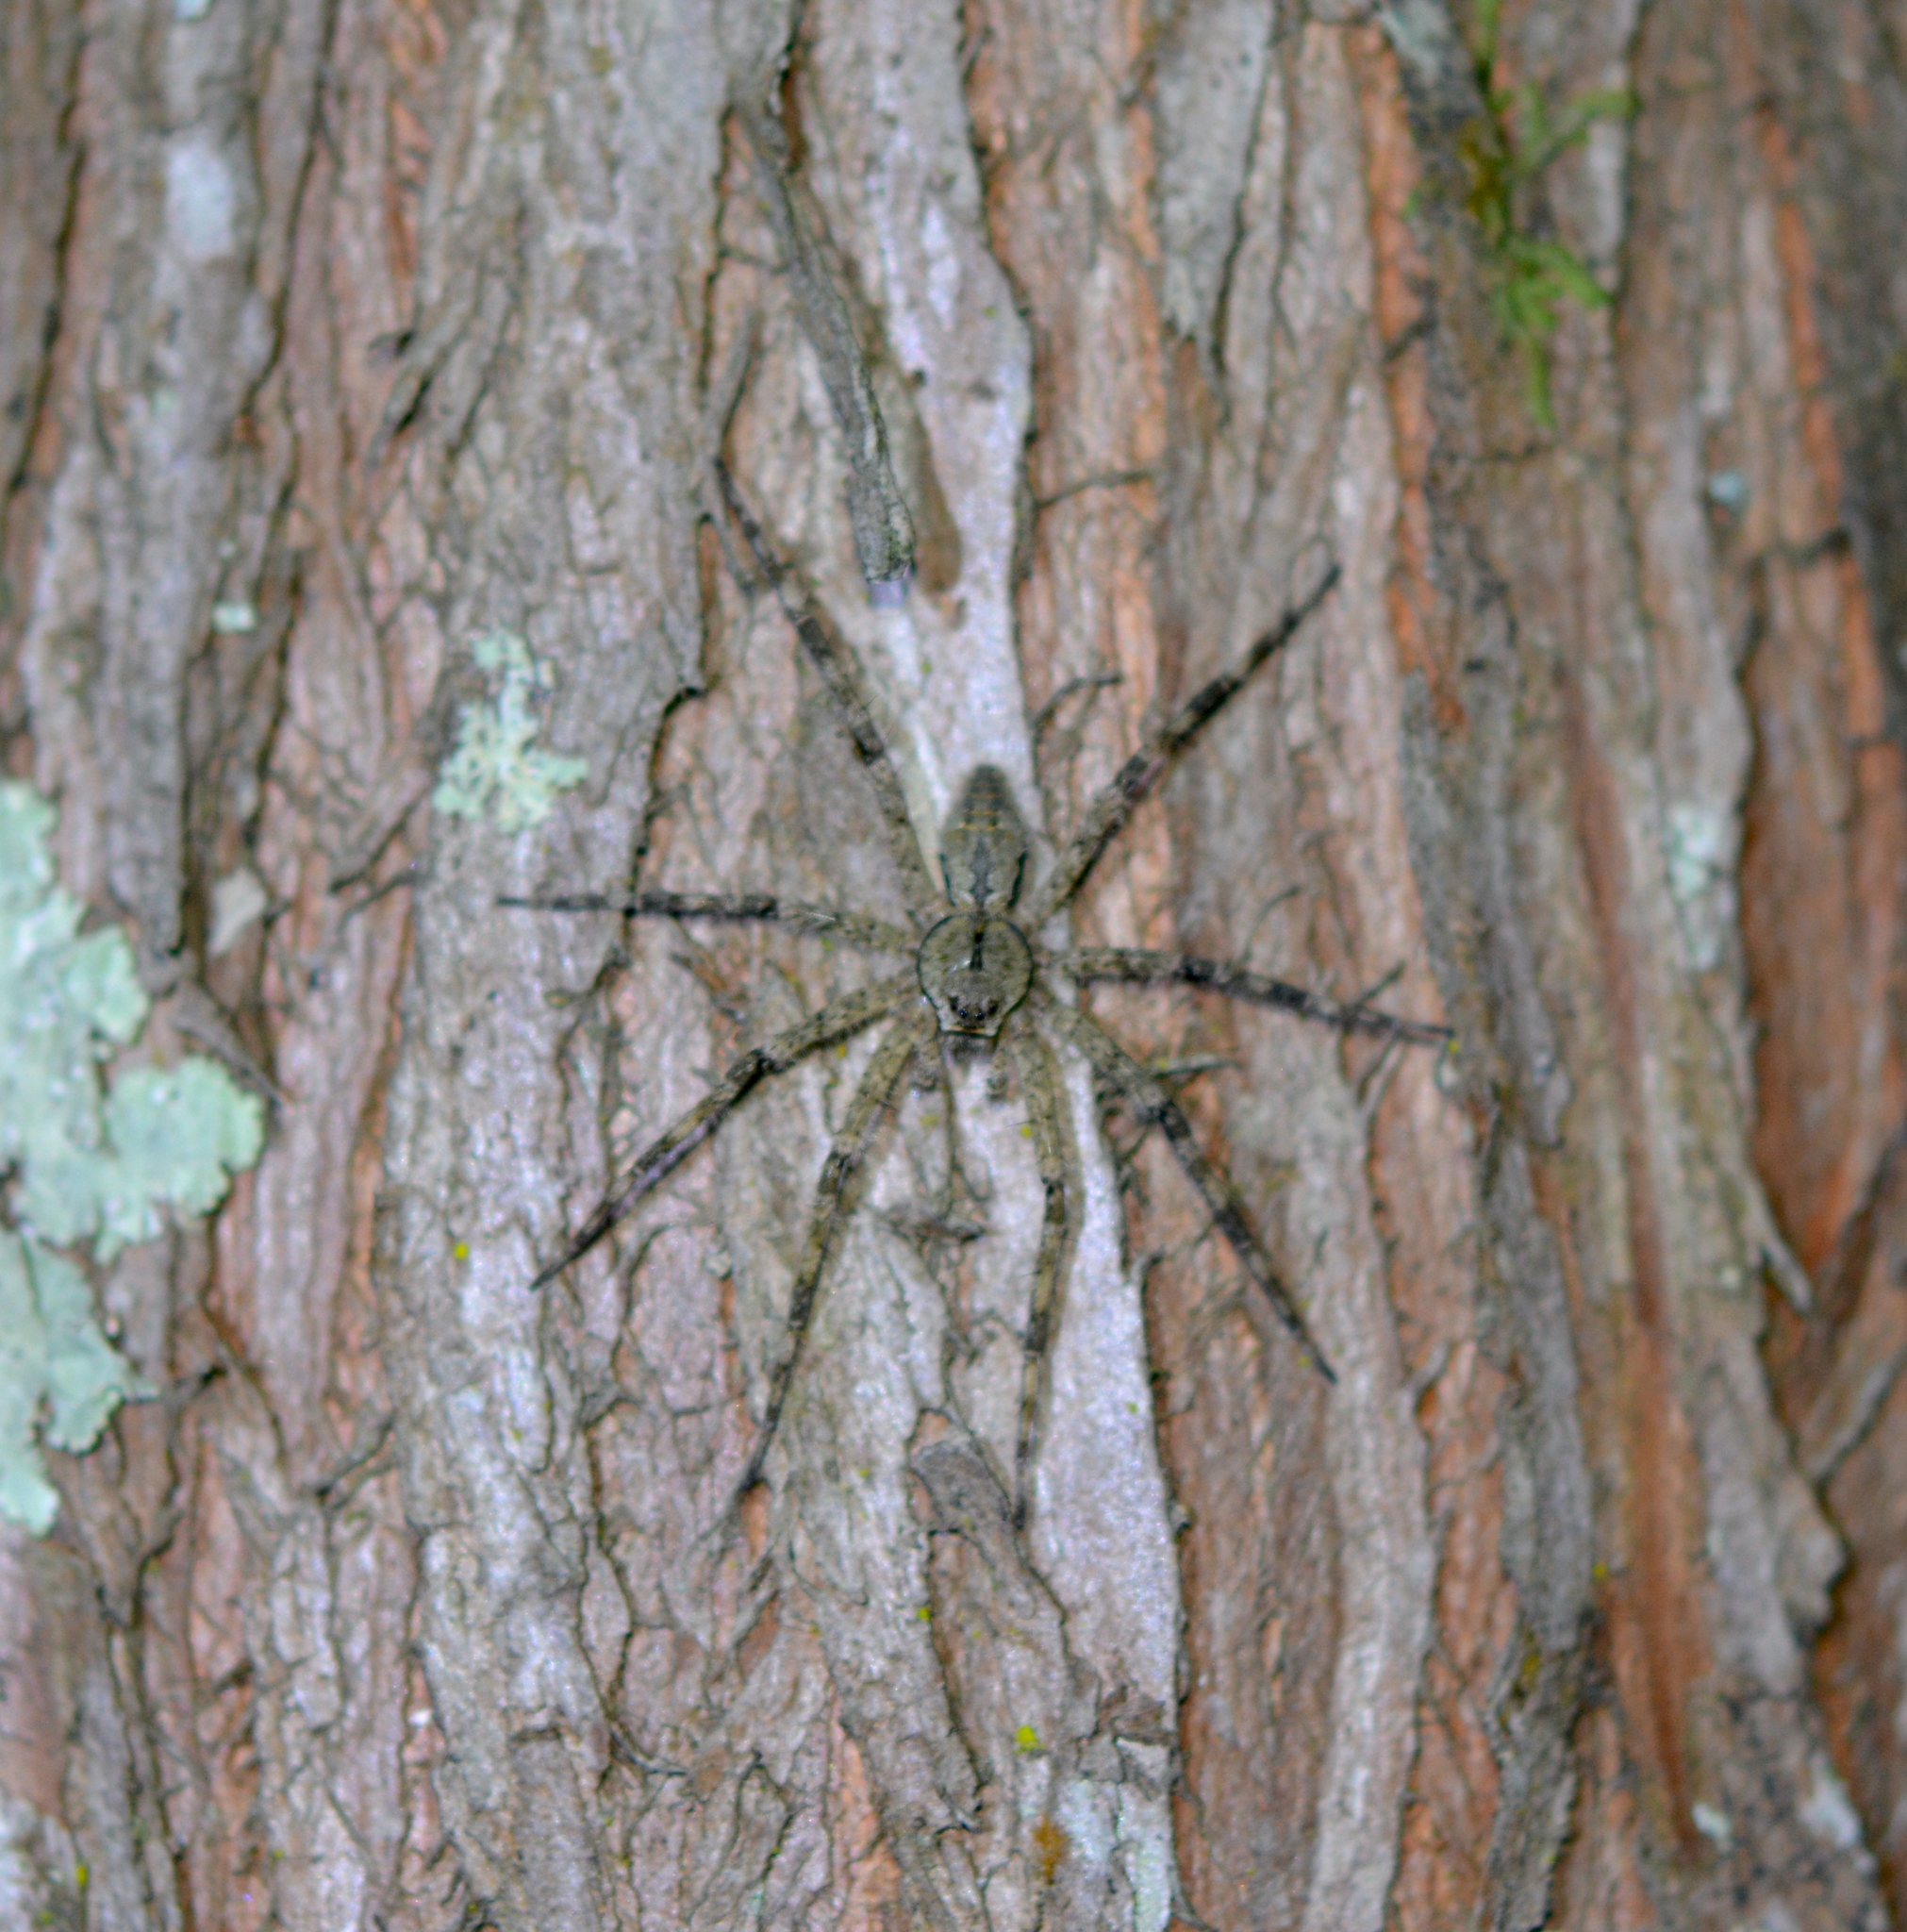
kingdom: Animalia
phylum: Arthropoda
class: Arachnida
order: Araneae
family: Pisauridae
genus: Dolomedes
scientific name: Dolomedes albineus
